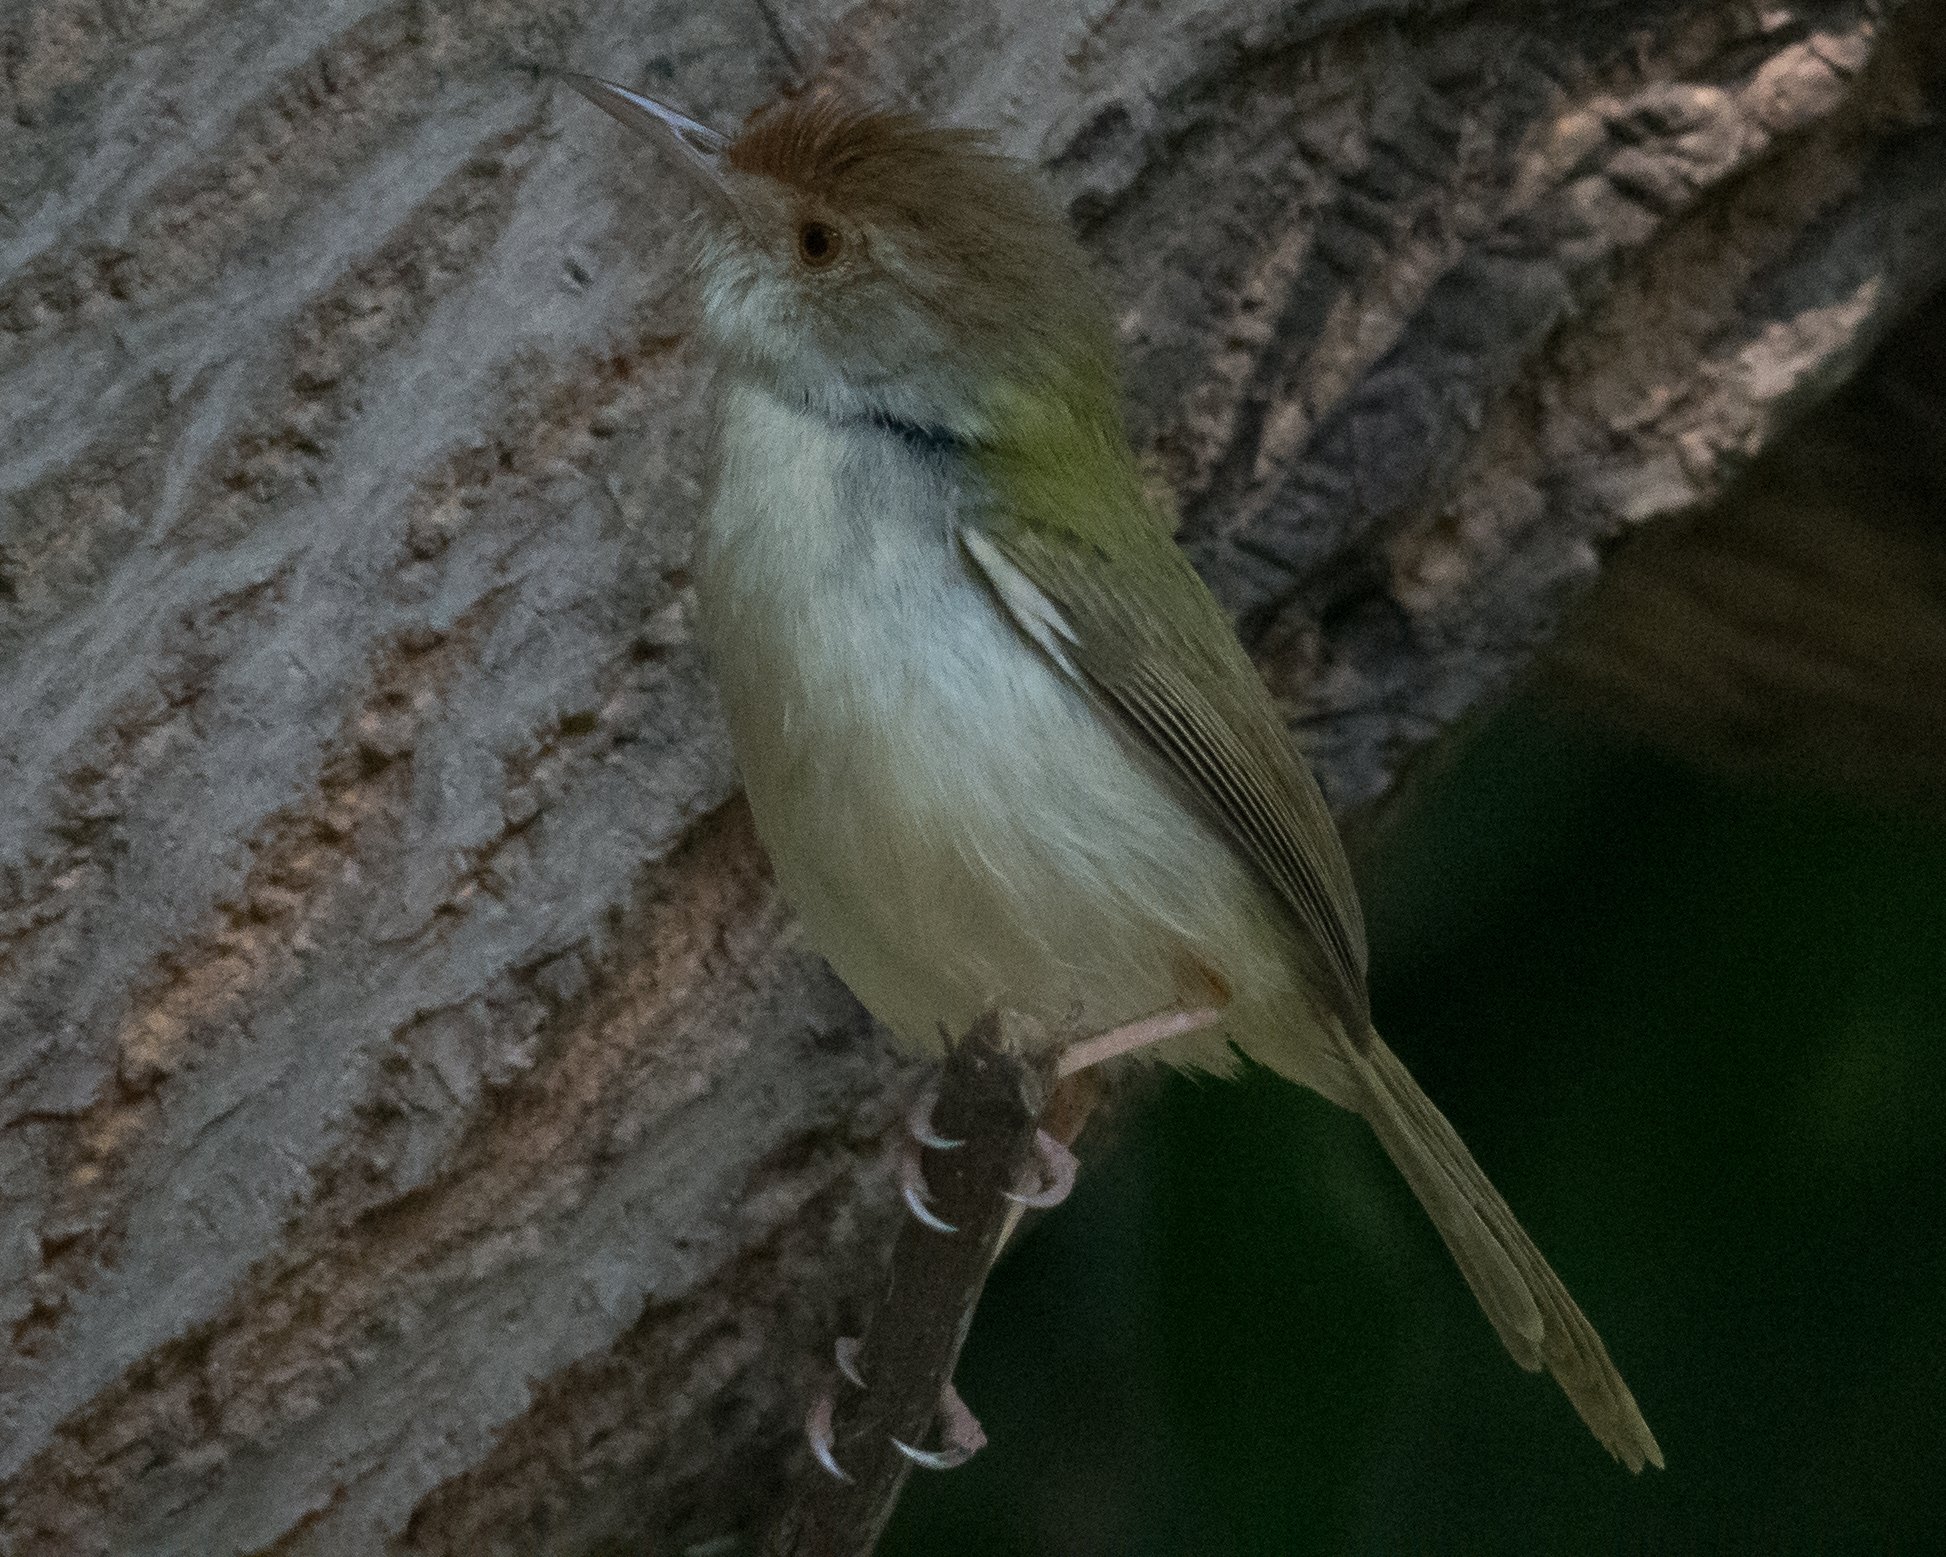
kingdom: Animalia
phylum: Chordata
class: Aves
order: Passeriformes
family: Cisticolidae
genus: Orthotomus
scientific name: Orthotomus sutorius
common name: Common tailorbird
